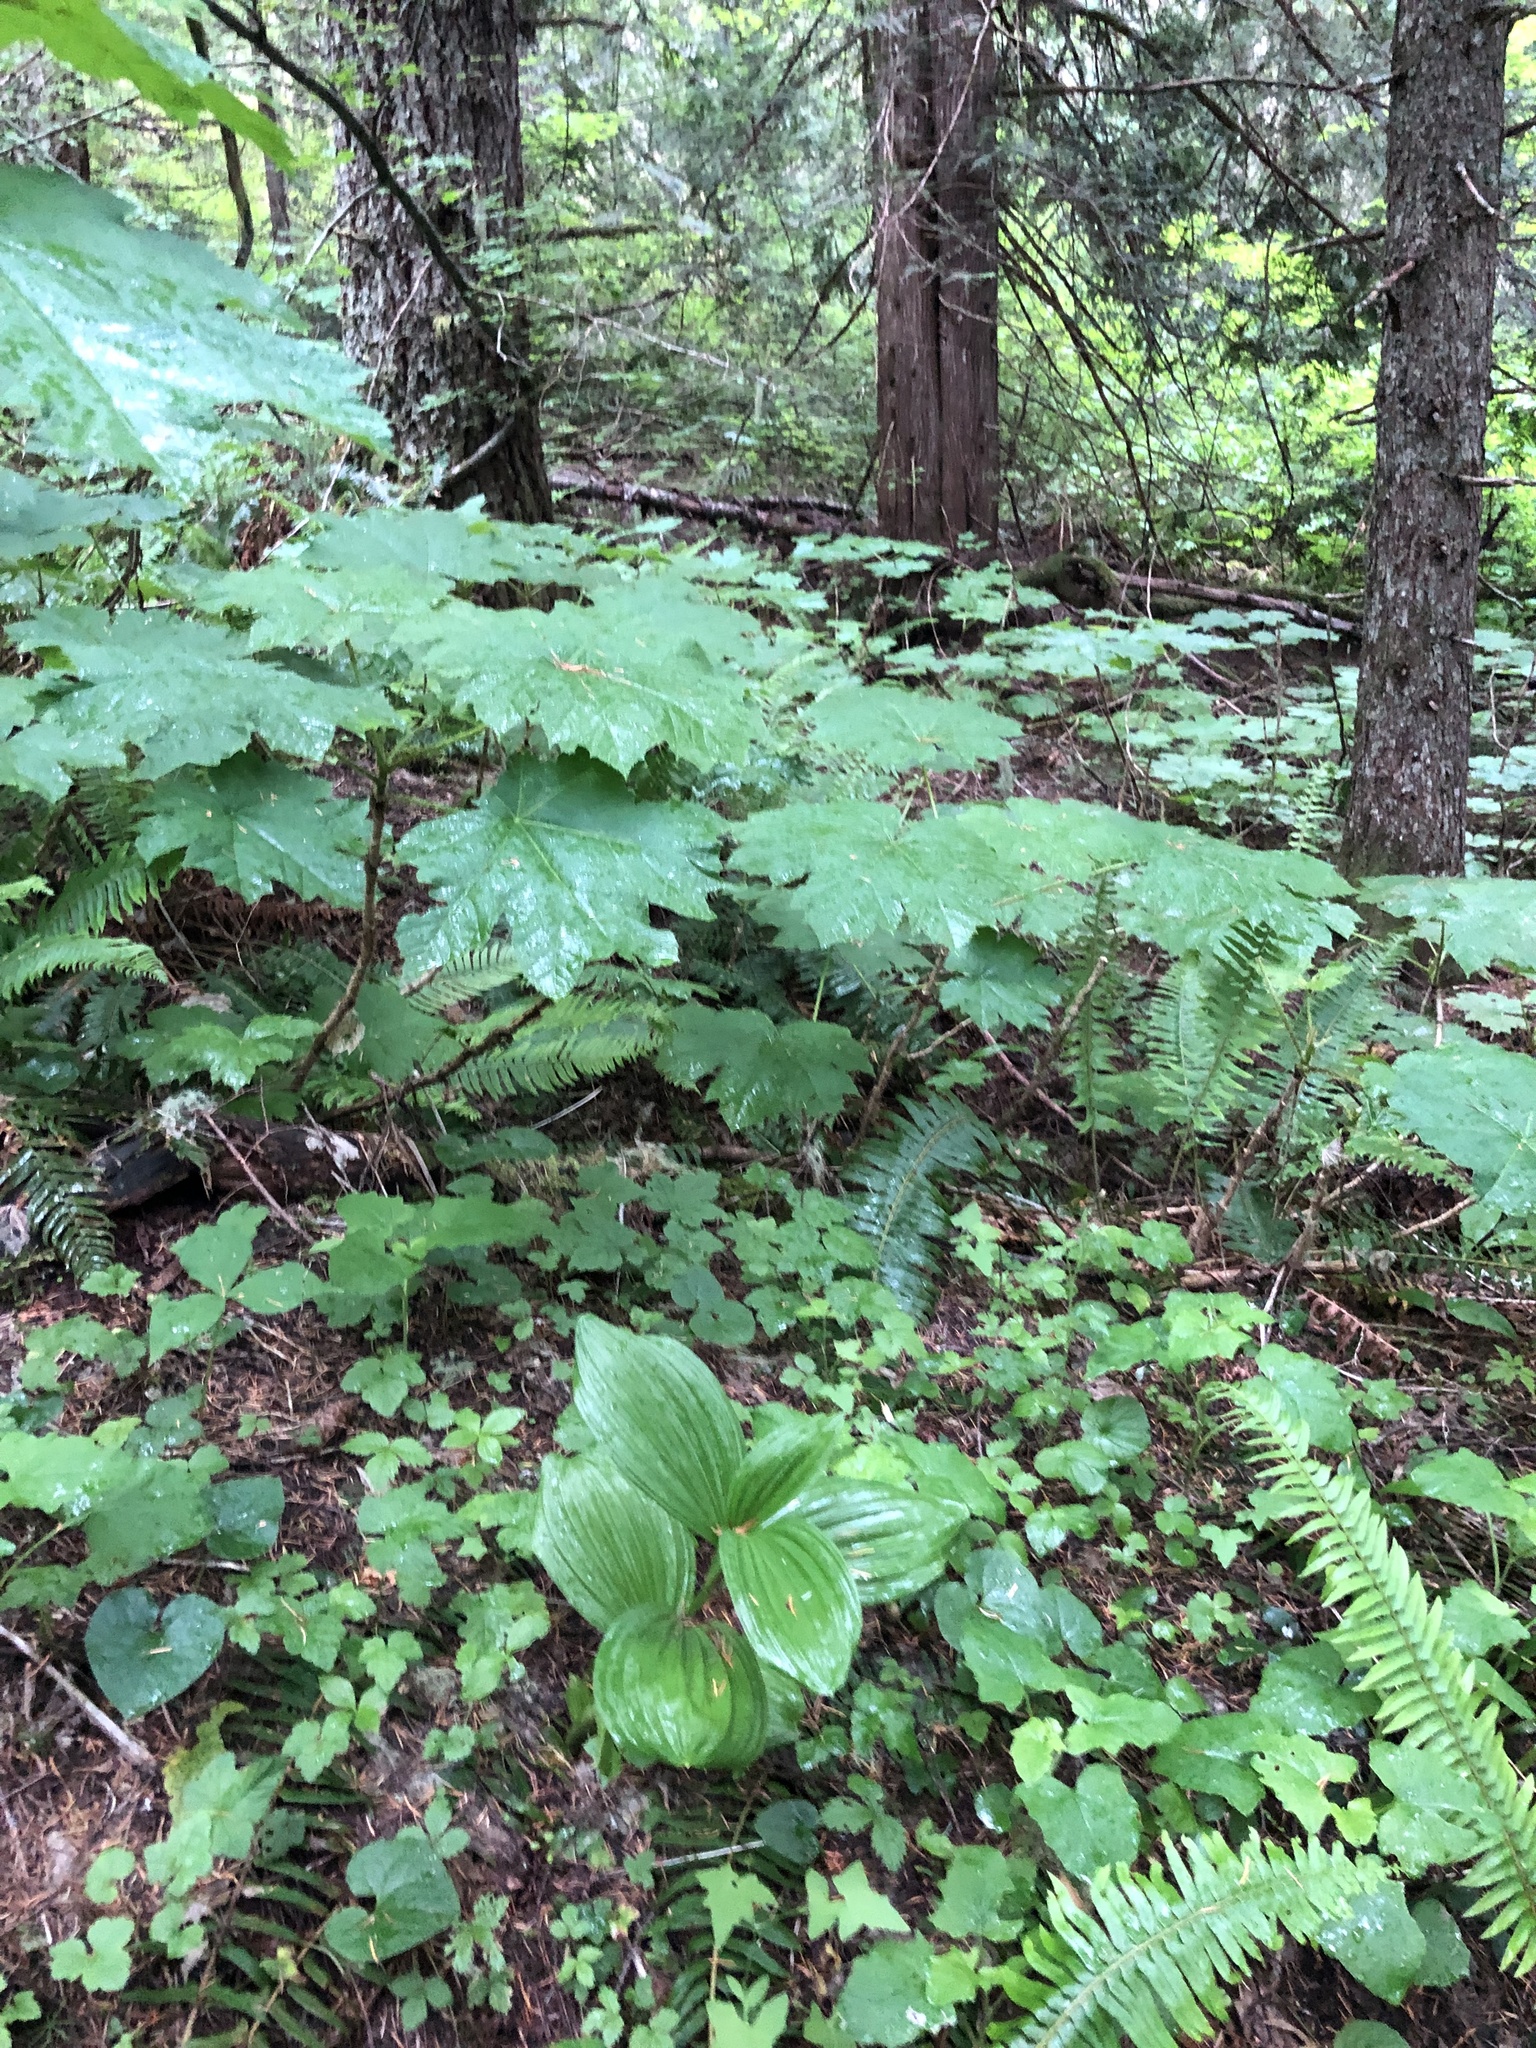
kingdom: Plantae
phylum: Tracheophyta
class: Liliopsida
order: Liliales
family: Melanthiaceae
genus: Veratrum
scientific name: Veratrum viride
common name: American false hellebore
